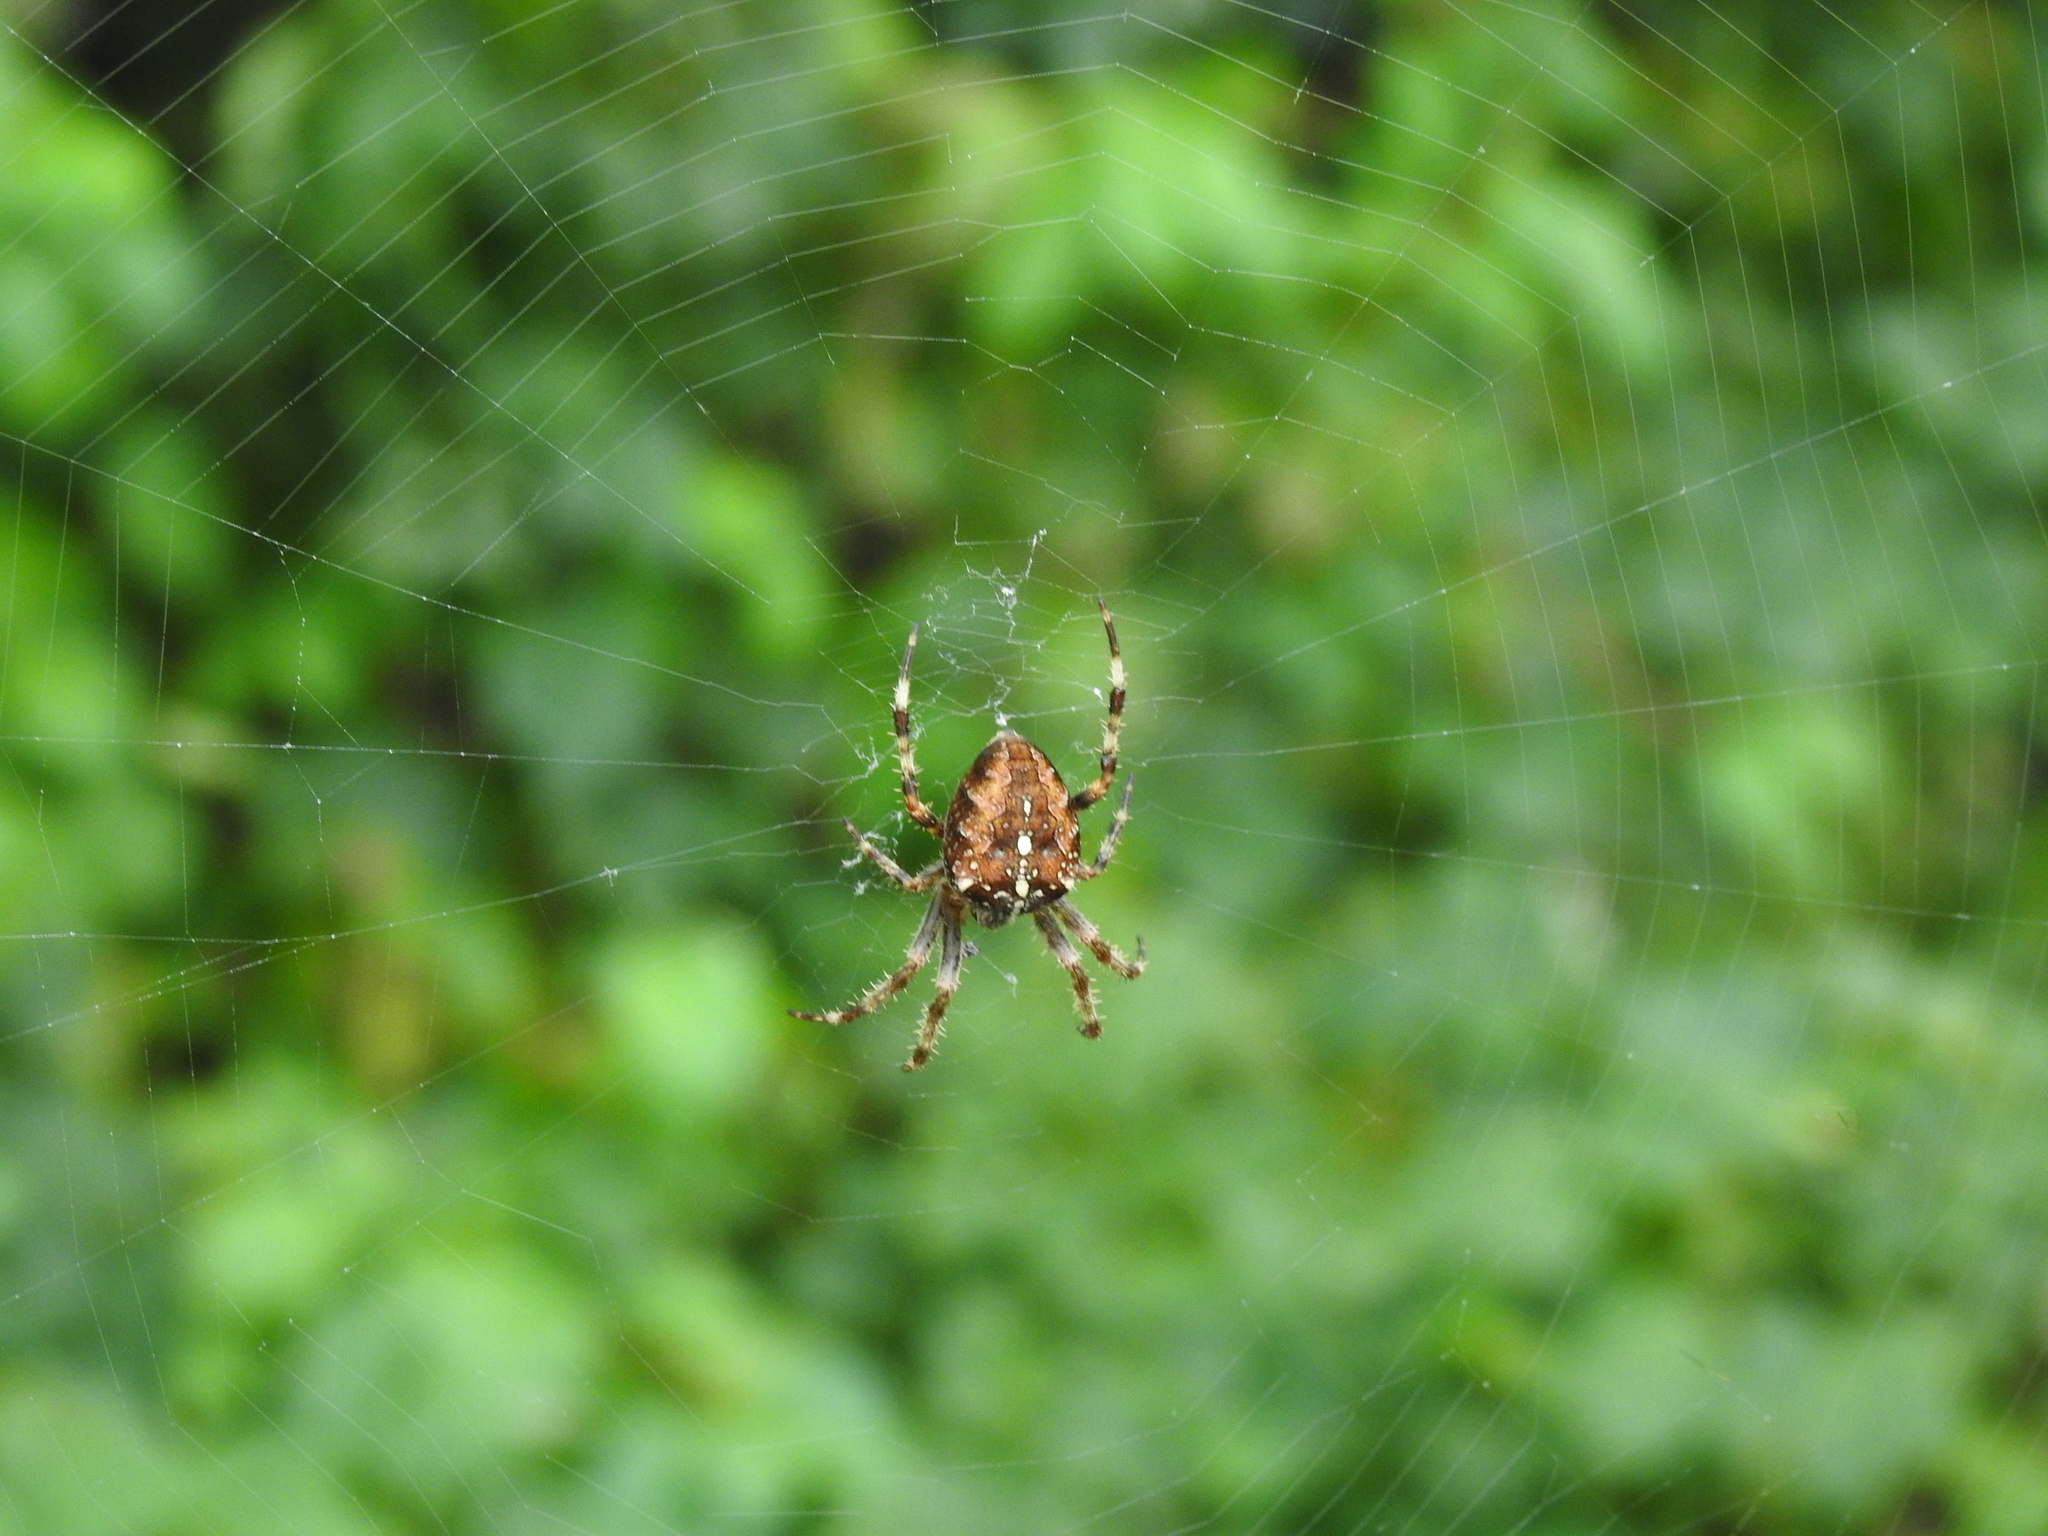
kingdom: Animalia
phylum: Arthropoda
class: Arachnida
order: Araneae
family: Araneidae
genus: Araneus
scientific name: Araneus diadematus
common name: Cross orbweaver
